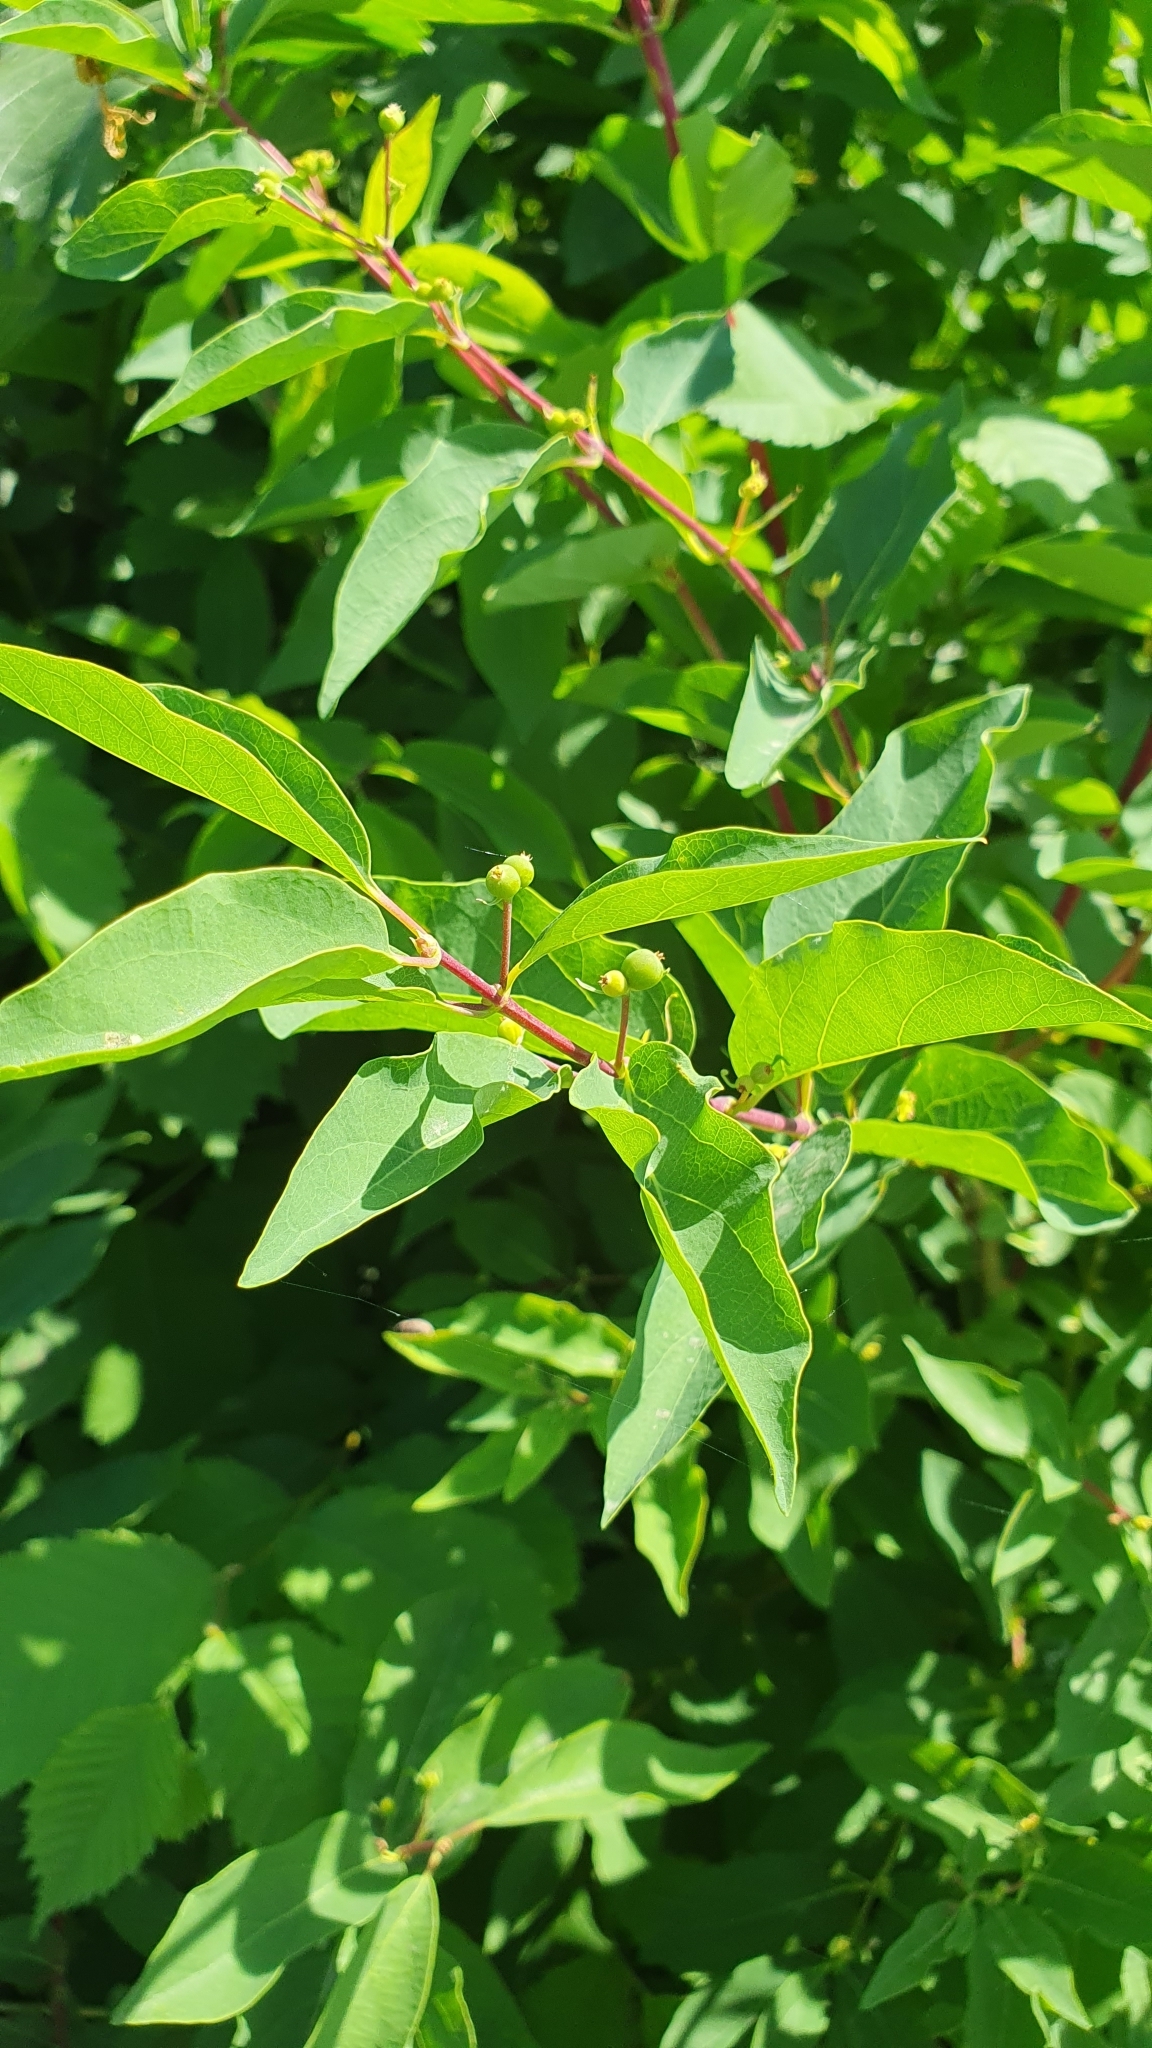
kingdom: Plantae
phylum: Tracheophyta
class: Magnoliopsida
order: Dipsacales
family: Caprifoliaceae
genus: Lonicera
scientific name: Lonicera tatarica
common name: Tatarian honeysuckle
